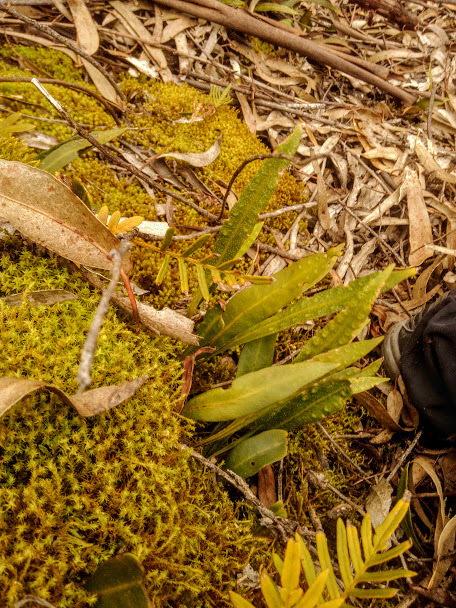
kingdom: Plantae
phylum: Tracheophyta
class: Polypodiopsida
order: Polypodiales
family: Polypodiaceae
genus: Pleopeltis
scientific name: Pleopeltis macrocarpa
